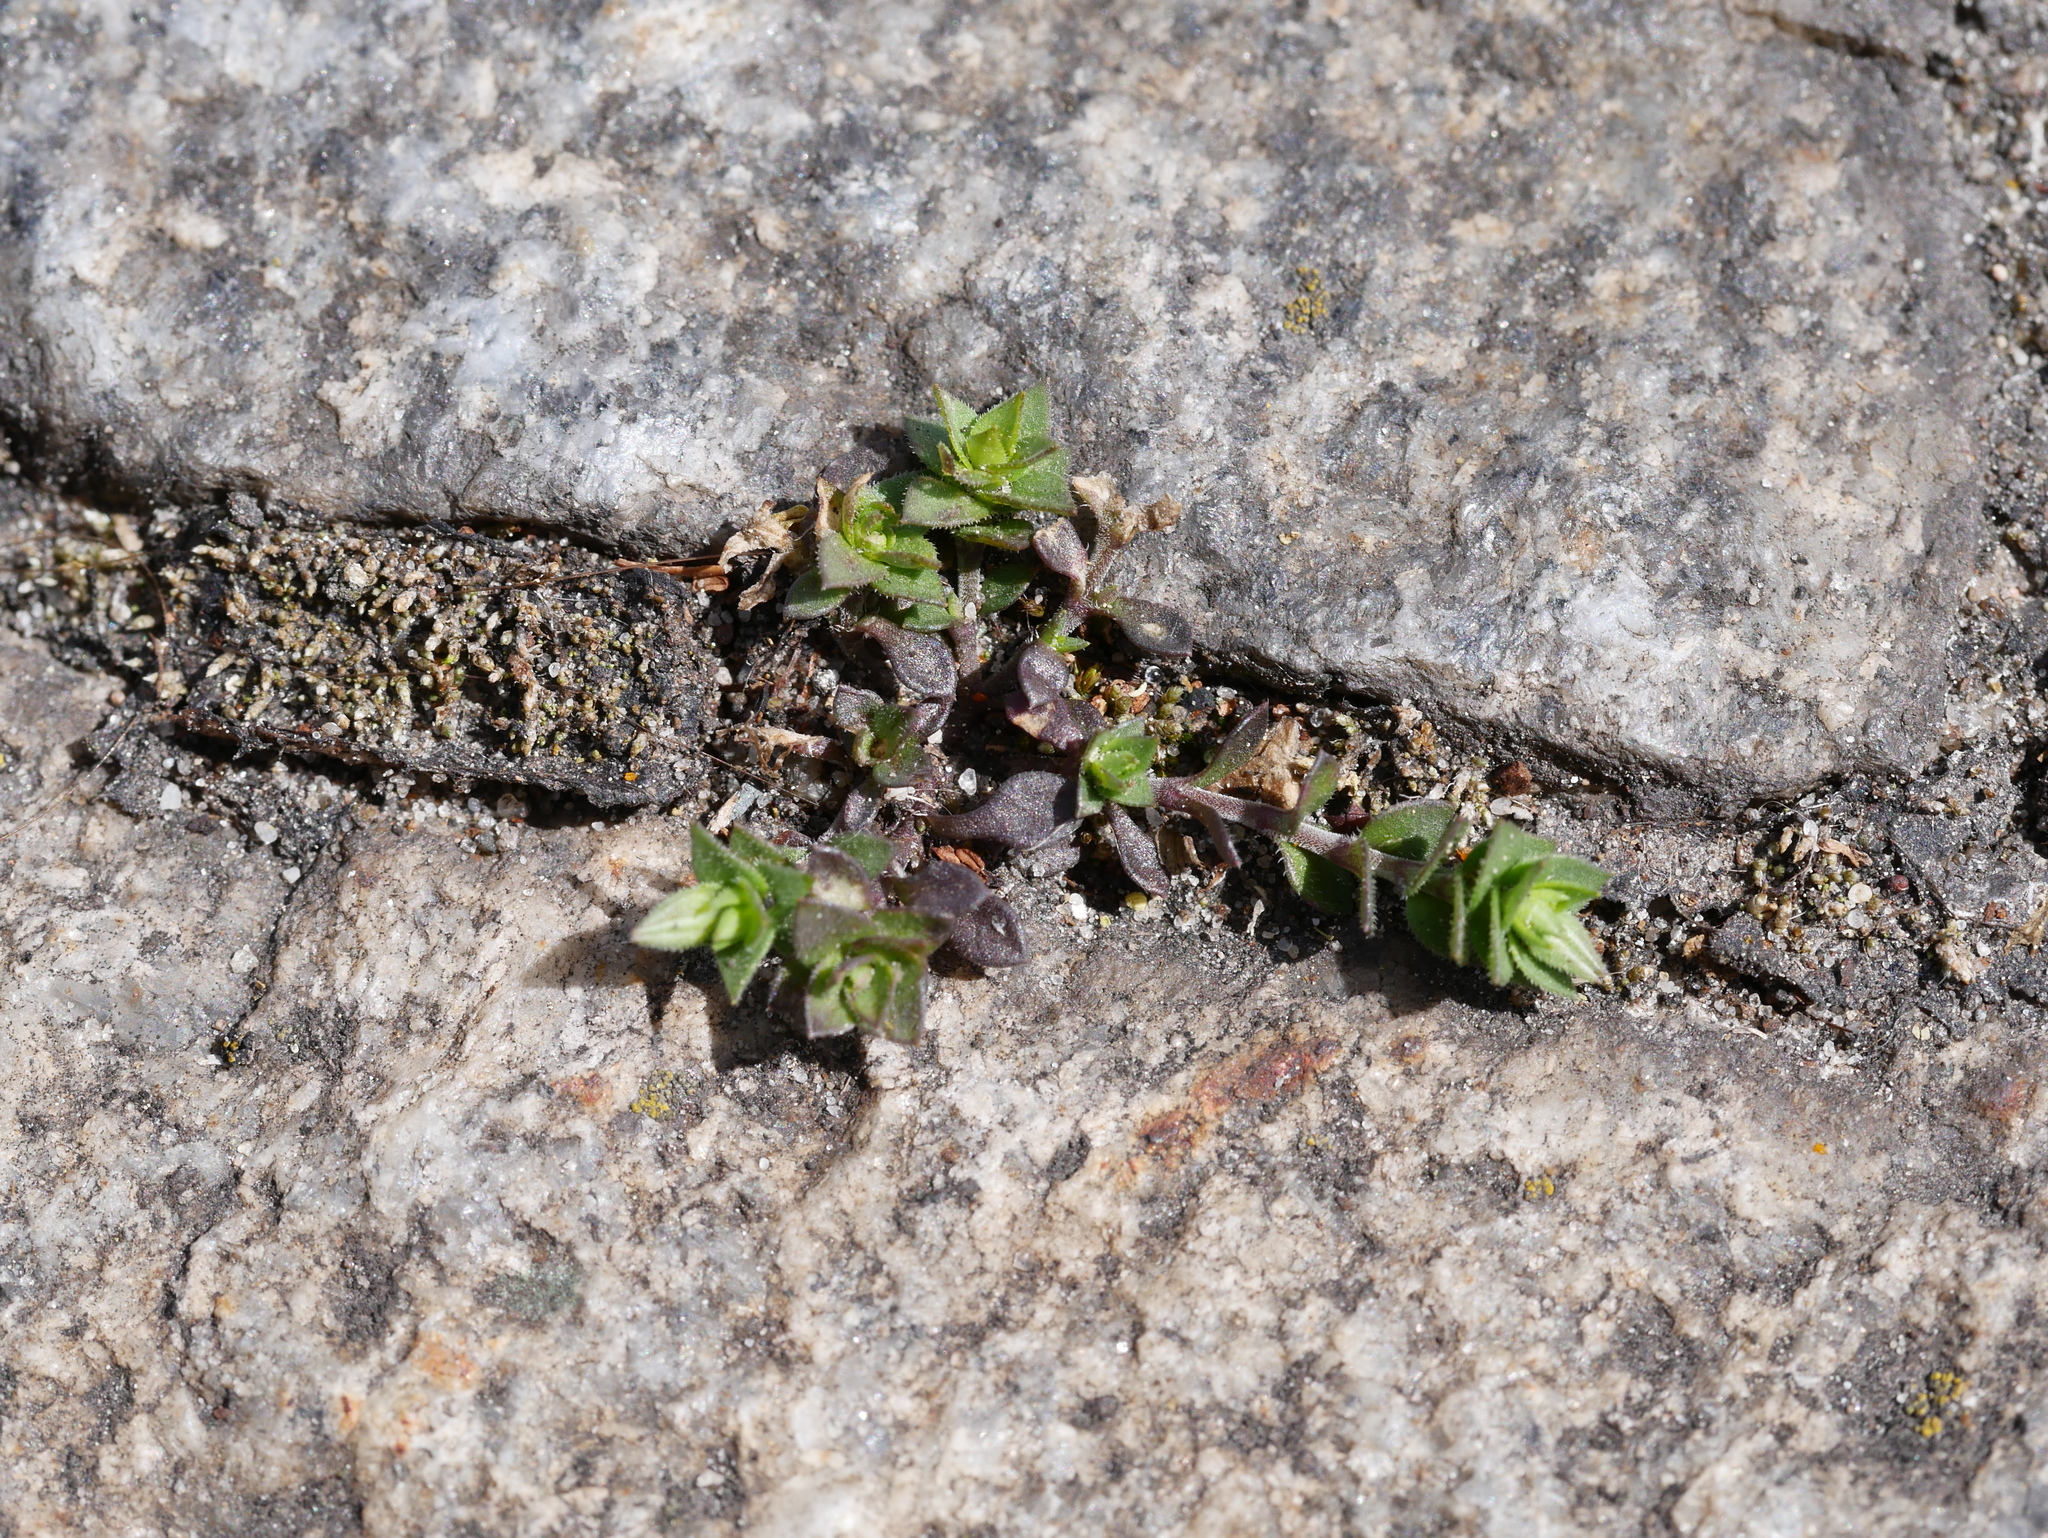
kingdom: Plantae
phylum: Tracheophyta
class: Magnoliopsida
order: Caryophyllales
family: Caryophyllaceae
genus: Arenaria
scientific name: Arenaria serpyllifolia
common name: Thyme-leaved sandwort
